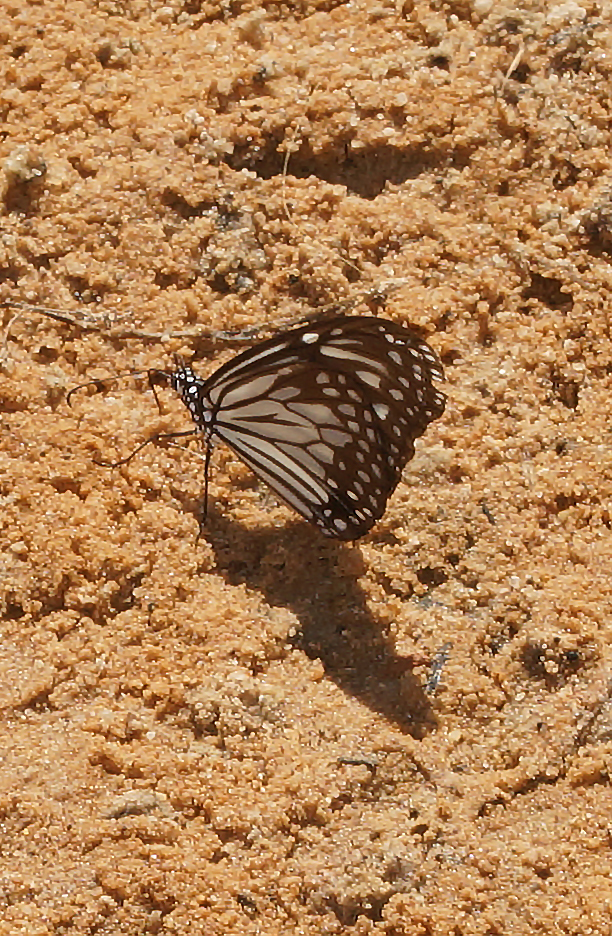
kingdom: Animalia
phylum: Arthropoda
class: Insecta
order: Lepidoptera
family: Nymphalidae
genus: Parantica
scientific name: Parantica aglea
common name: Glassy tiger
